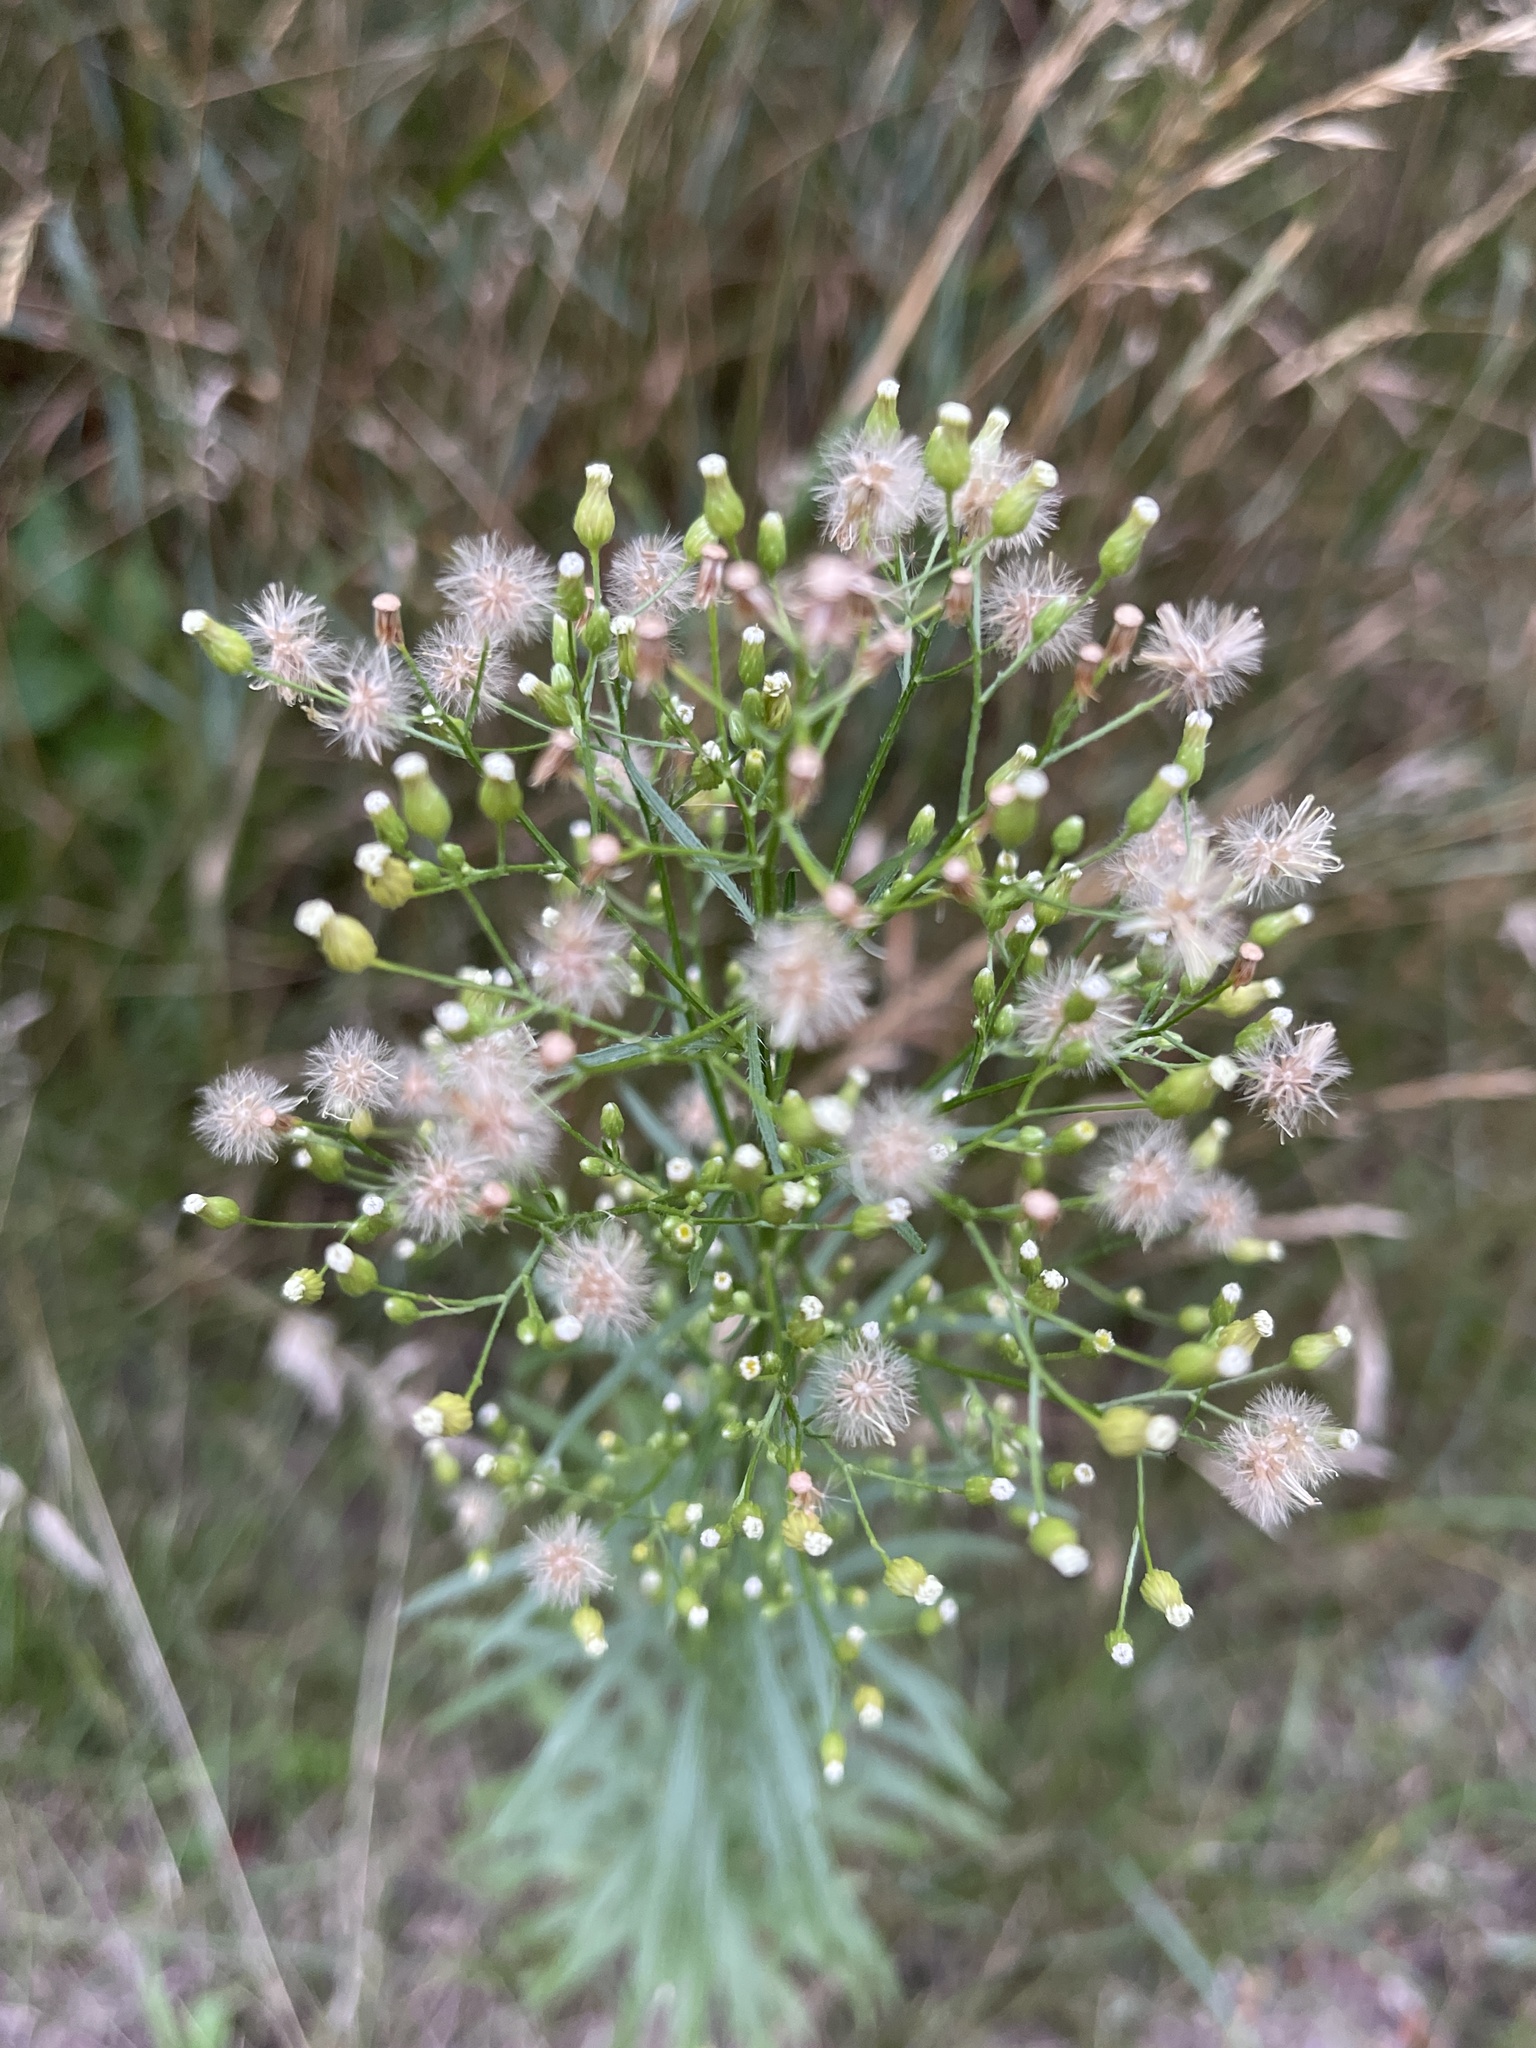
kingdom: Plantae
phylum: Tracheophyta
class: Magnoliopsida
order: Asterales
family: Asteraceae
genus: Erigeron
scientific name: Erigeron canadensis
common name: Canadian fleabane
